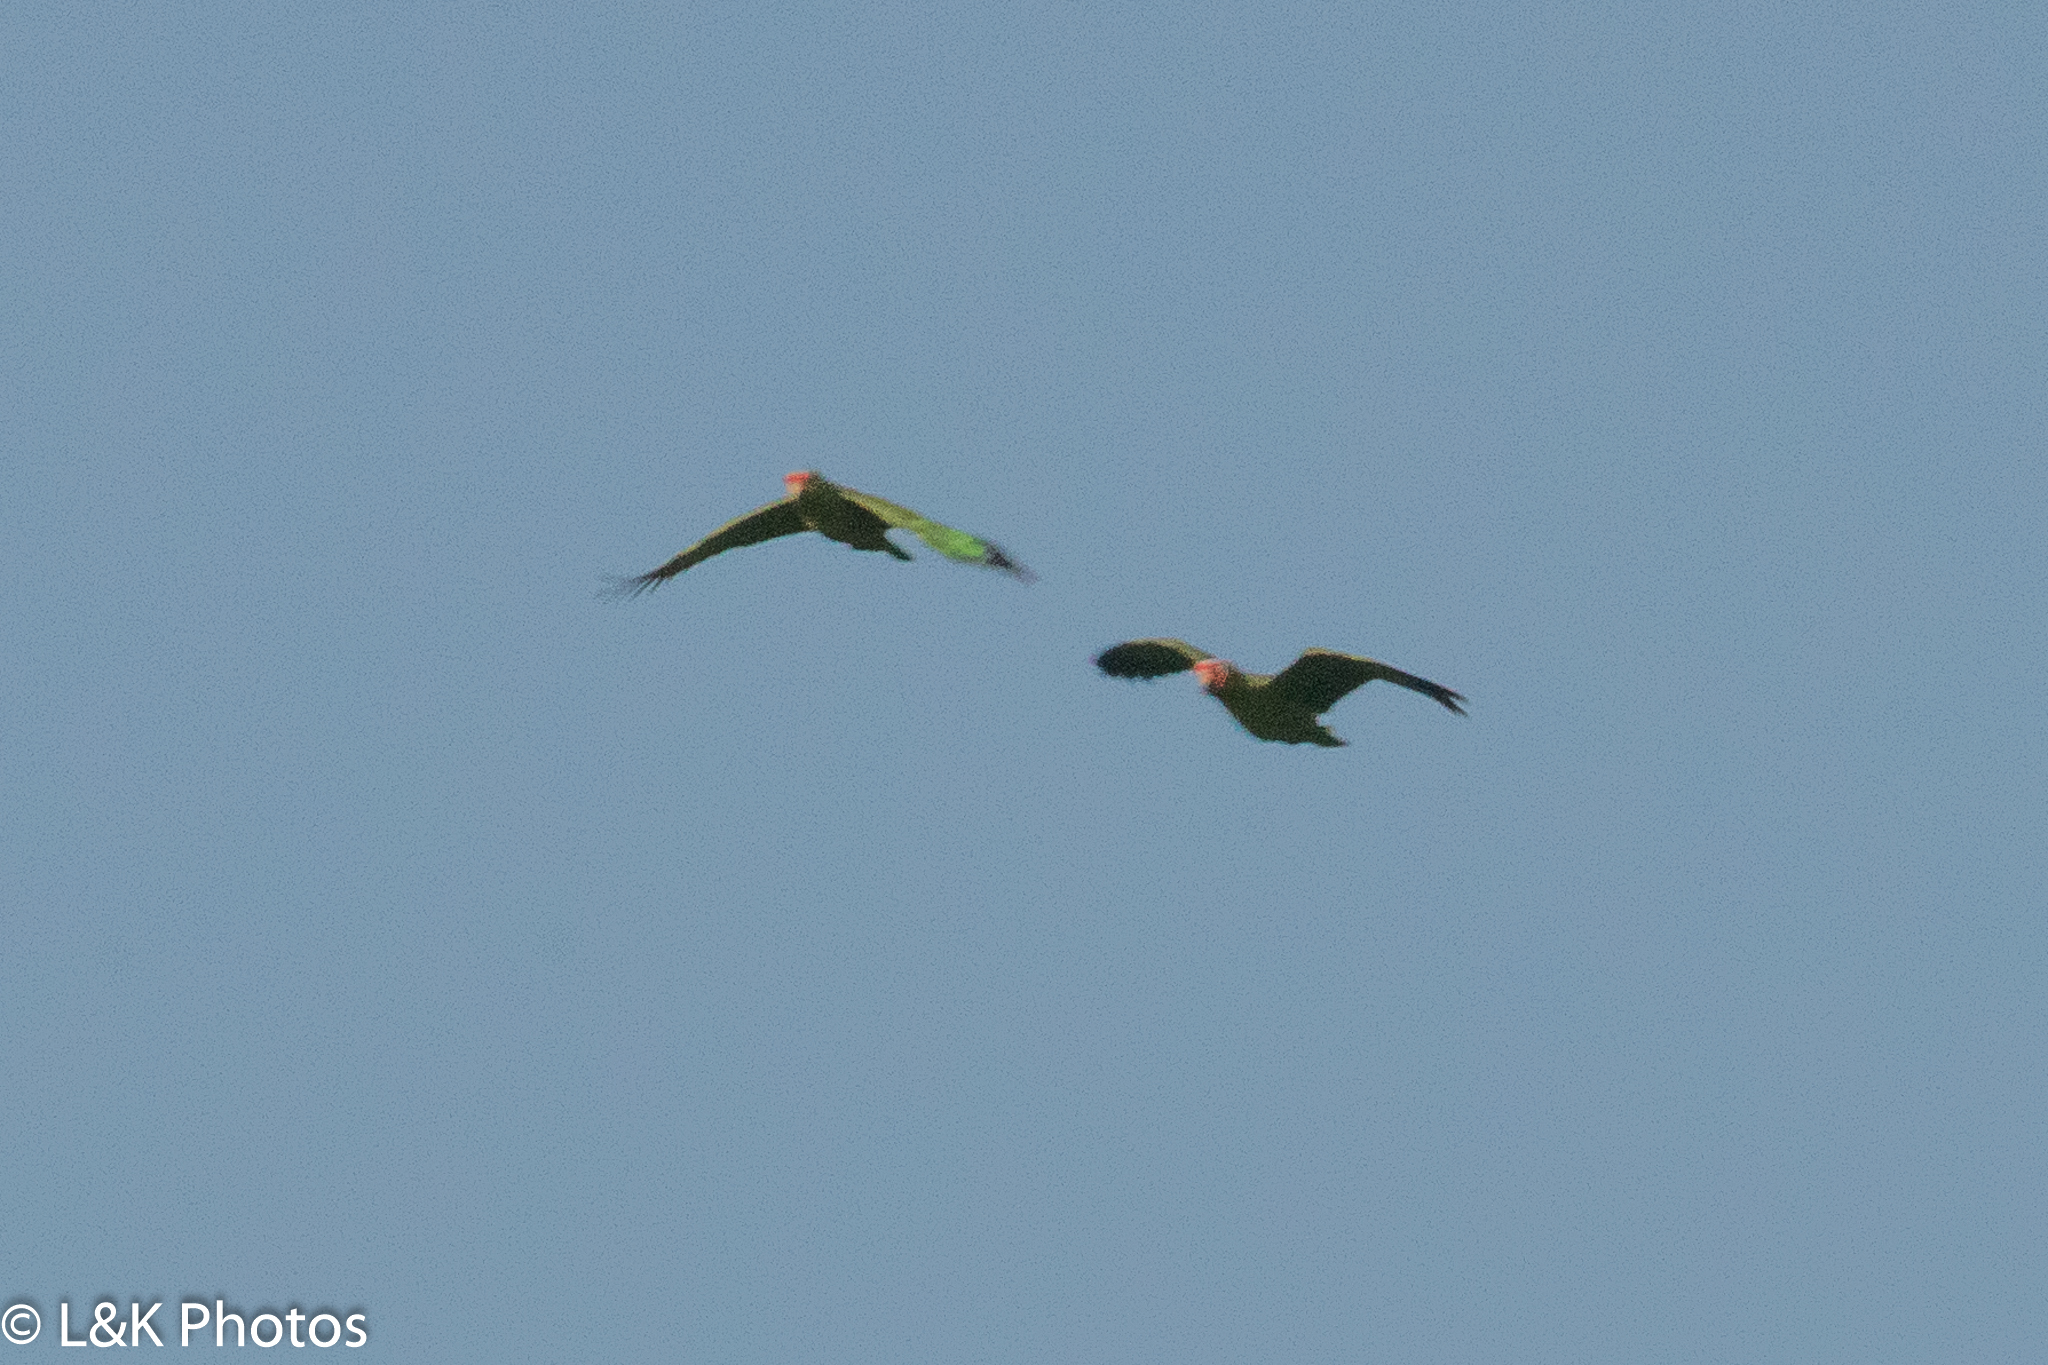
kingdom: Animalia
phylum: Chordata
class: Aves
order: Psittaciformes
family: Psittacidae
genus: Amazona
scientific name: Amazona autumnalis
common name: Red-lored amazon
